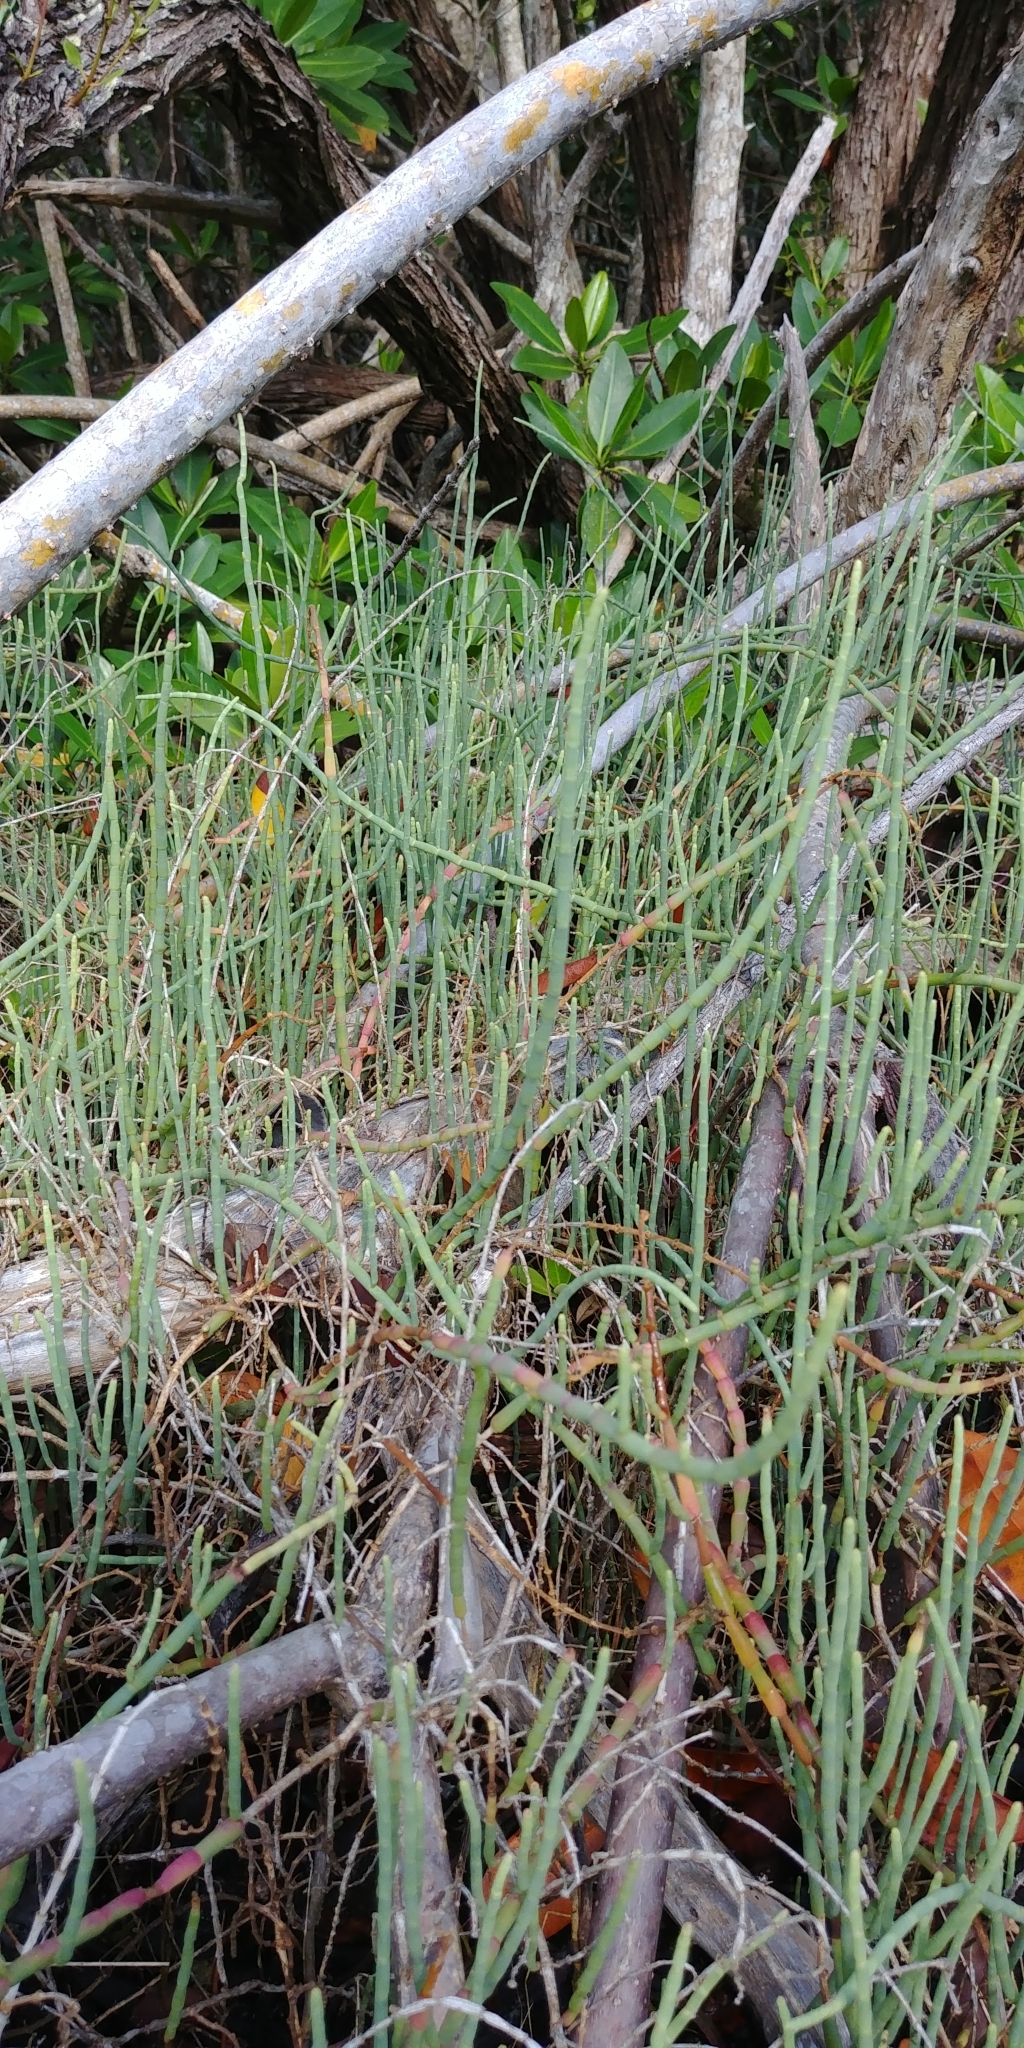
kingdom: Plantae
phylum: Tracheophyta
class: Magnoliopsida
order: Caryophyllales
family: Amaranthaceae
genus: Salicornia
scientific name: Salicornia ambigua
